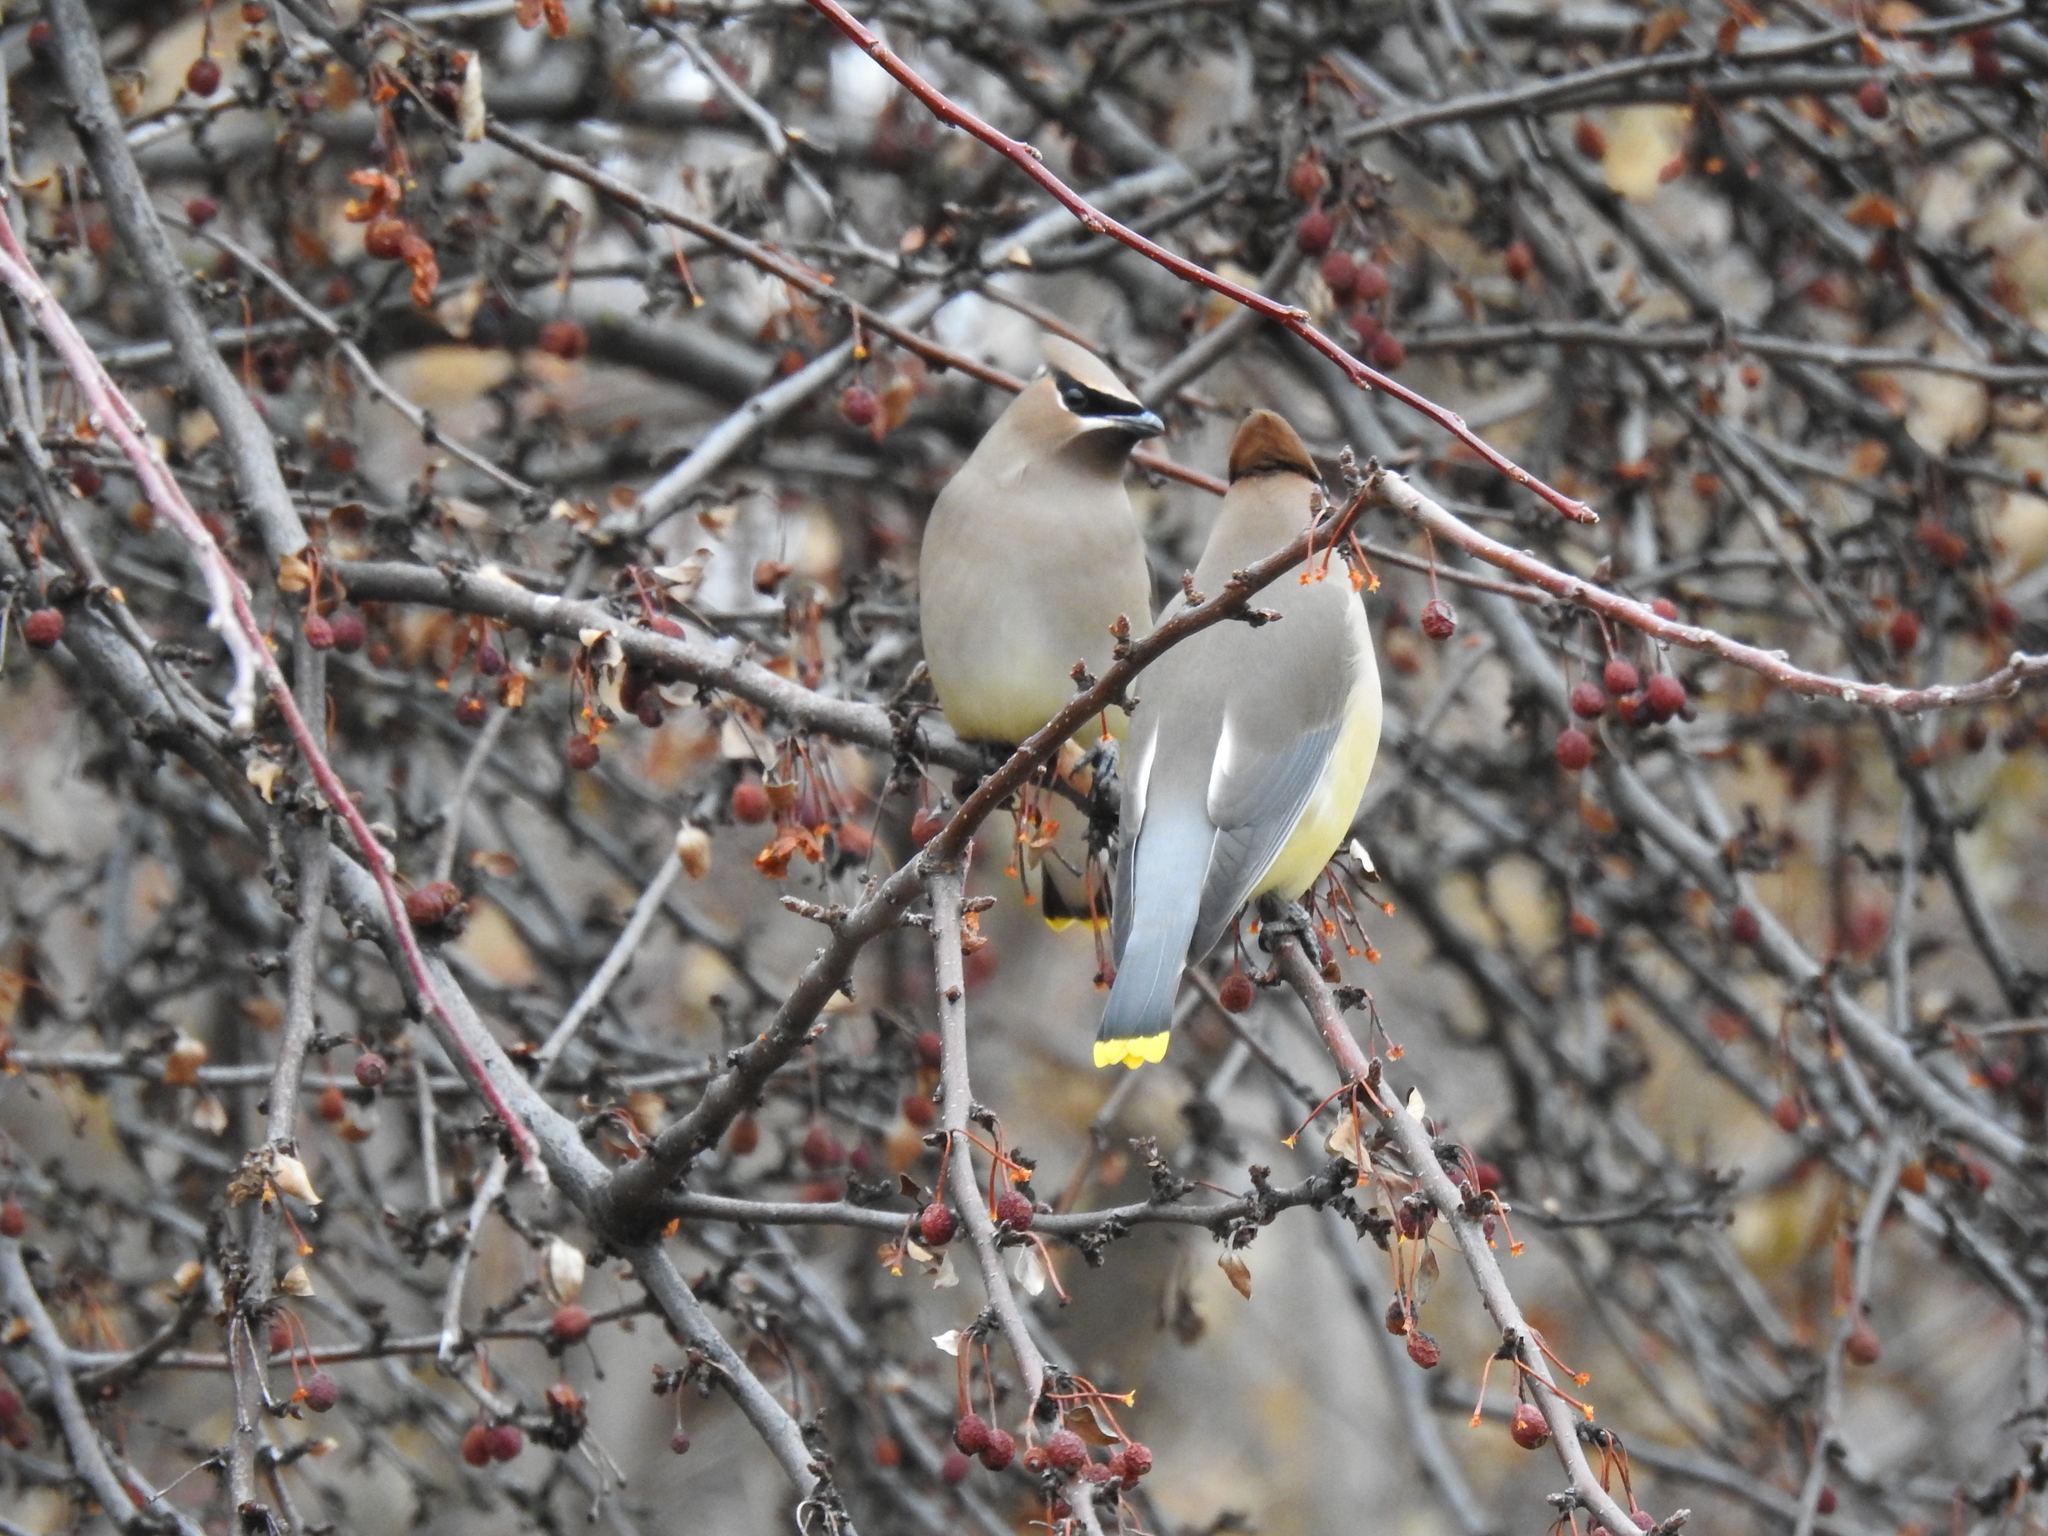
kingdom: Animalia
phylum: Chordata
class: Aves
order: Passeriformes
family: Bombycillidae
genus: Bombycilla
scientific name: Bombycilla cedrorum
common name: Cedar waxwing
